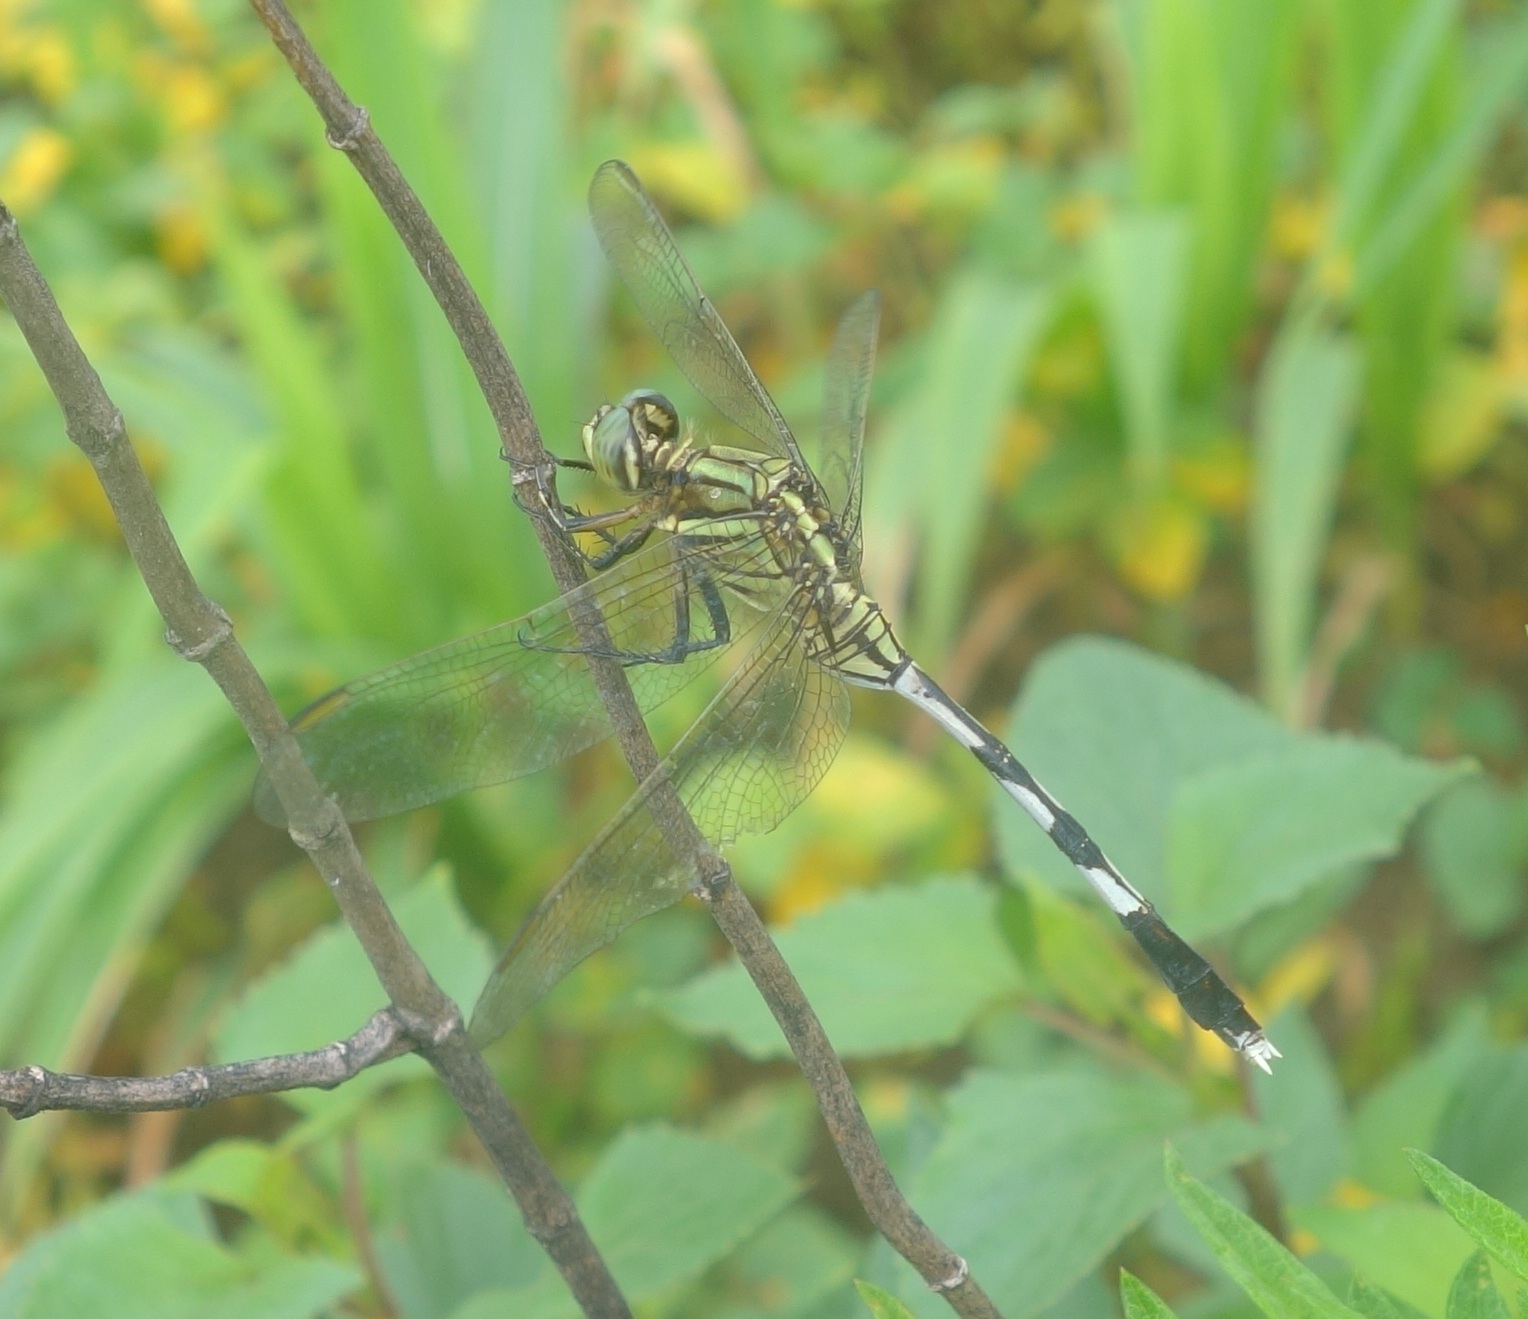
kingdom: Animalia
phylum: Arthropoda
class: Insecta
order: Odonata
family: Libellulidae
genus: Orthetrum
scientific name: Orthetrum sabina
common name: Slender skimmer
